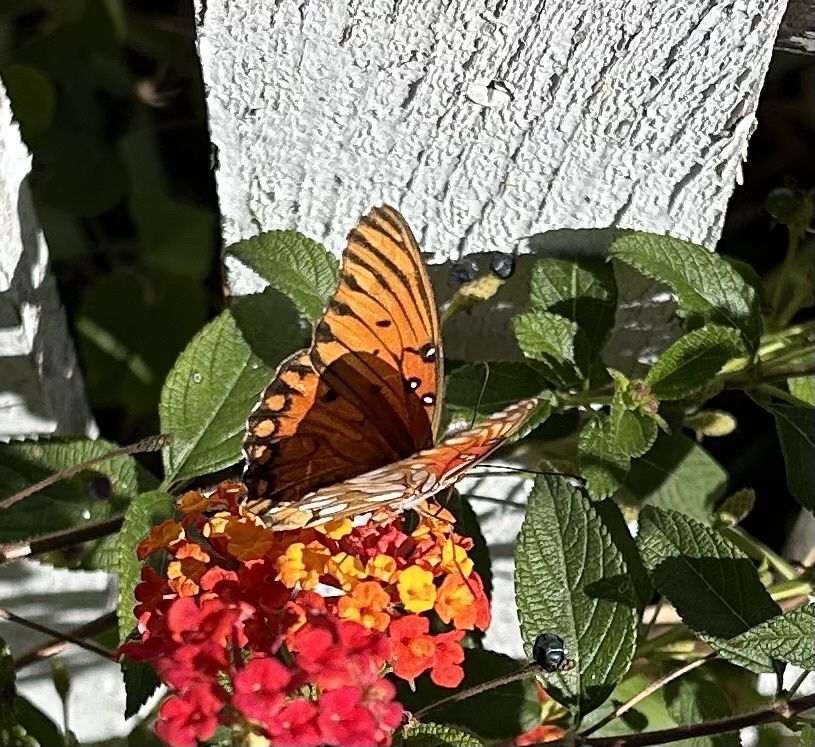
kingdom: Animalia
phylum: Arthropoda
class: Insecta
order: Lepidoptera
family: Nymphalidae
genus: Dione
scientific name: Dione vanillae
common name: Gulf fritillary
